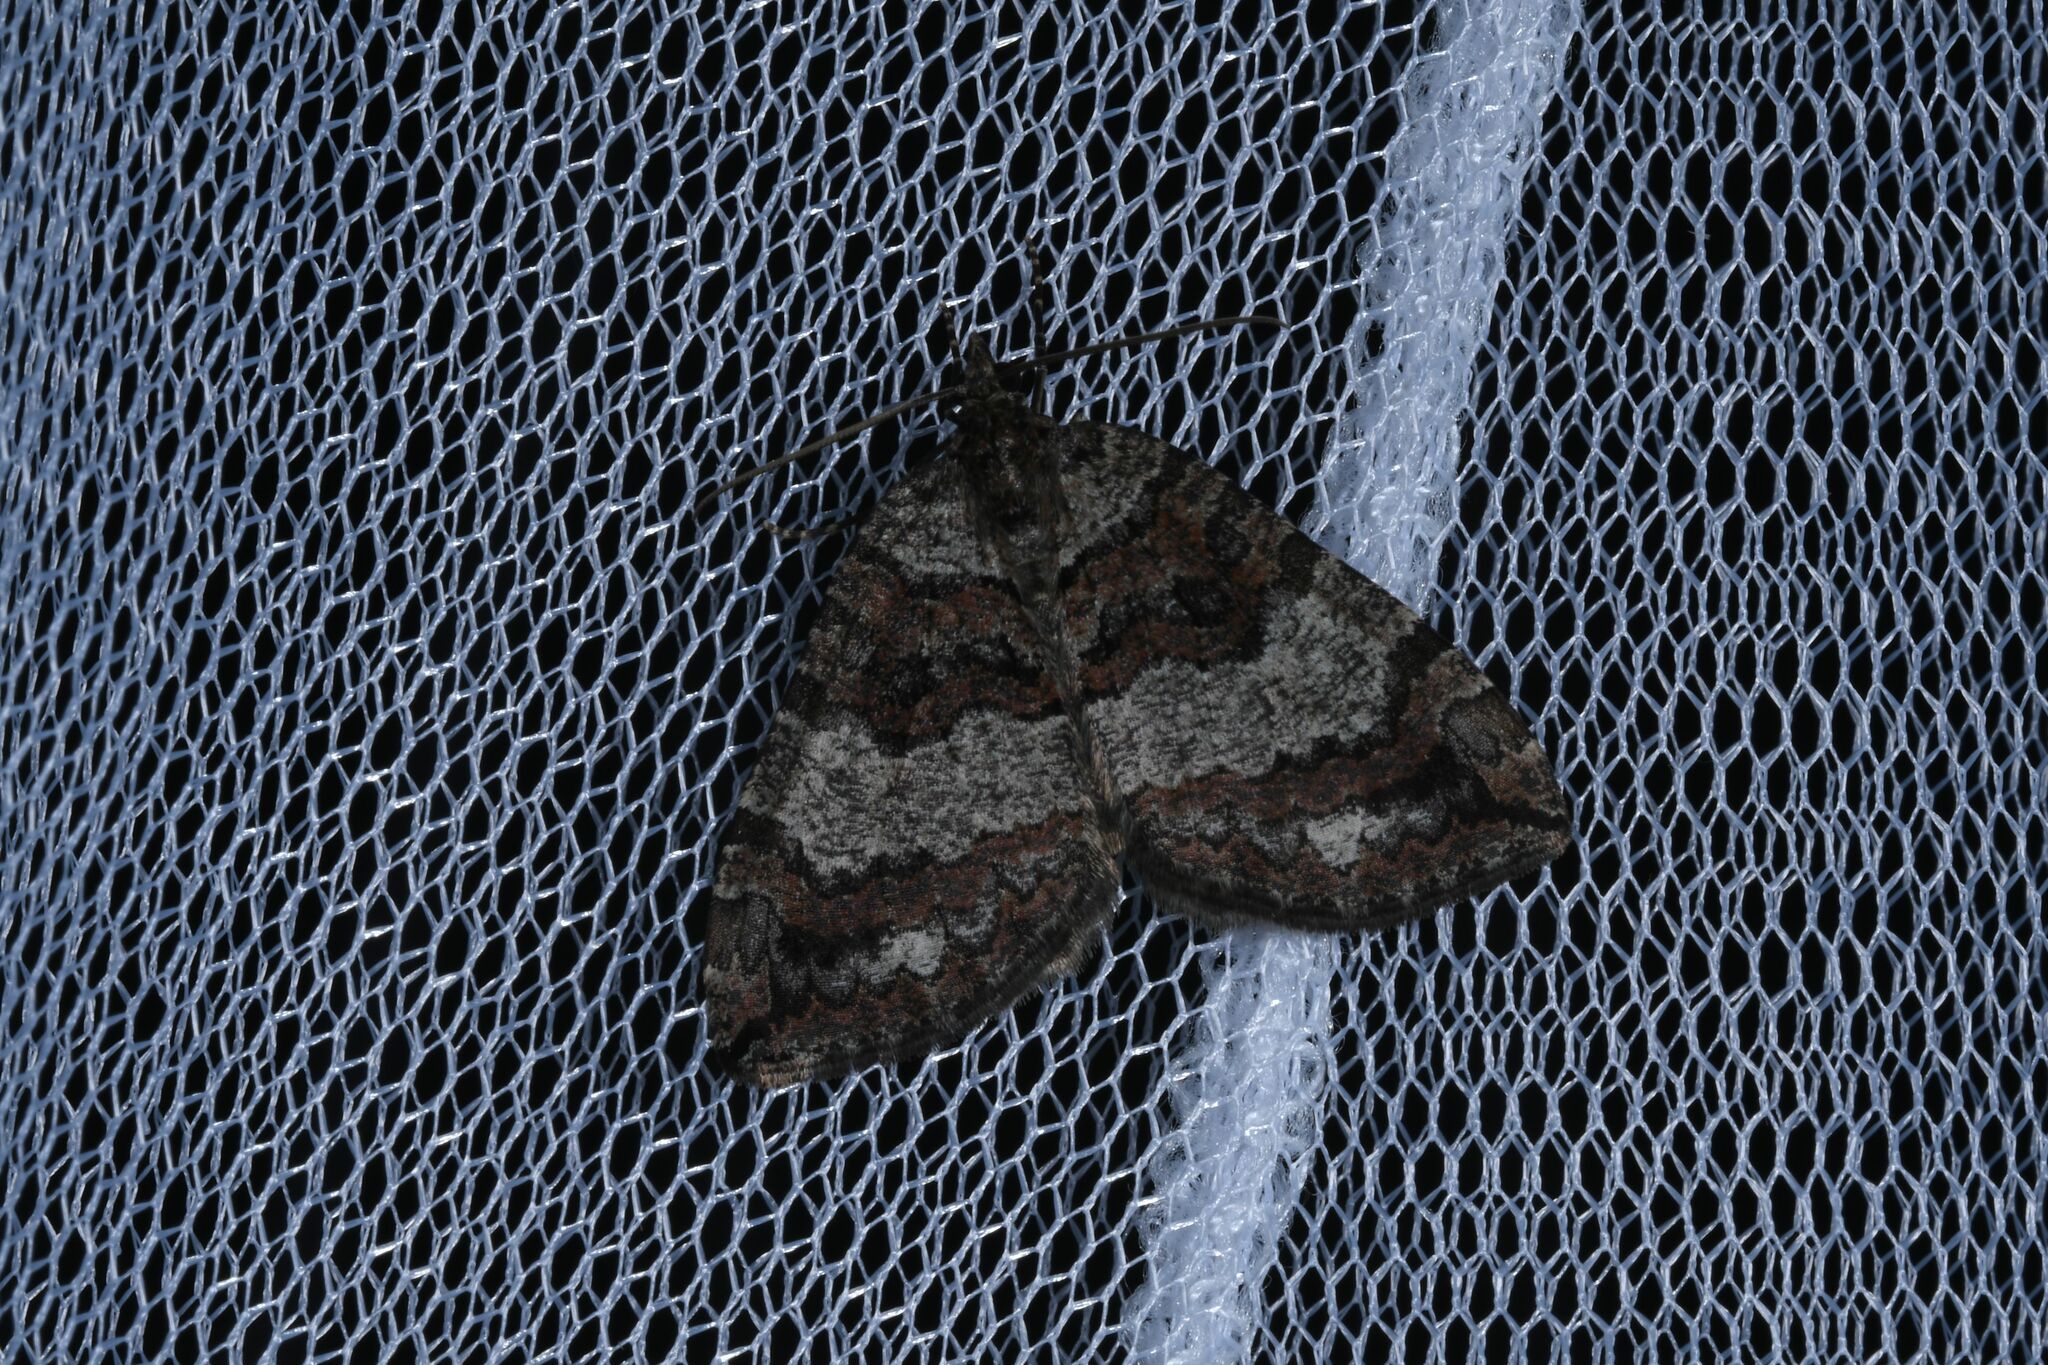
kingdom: Animalia
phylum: Arthropoda
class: Insecta
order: Lepidoptera
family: Geometridae
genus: Hydriomena
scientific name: Hydriomena furcata
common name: July highflyer
